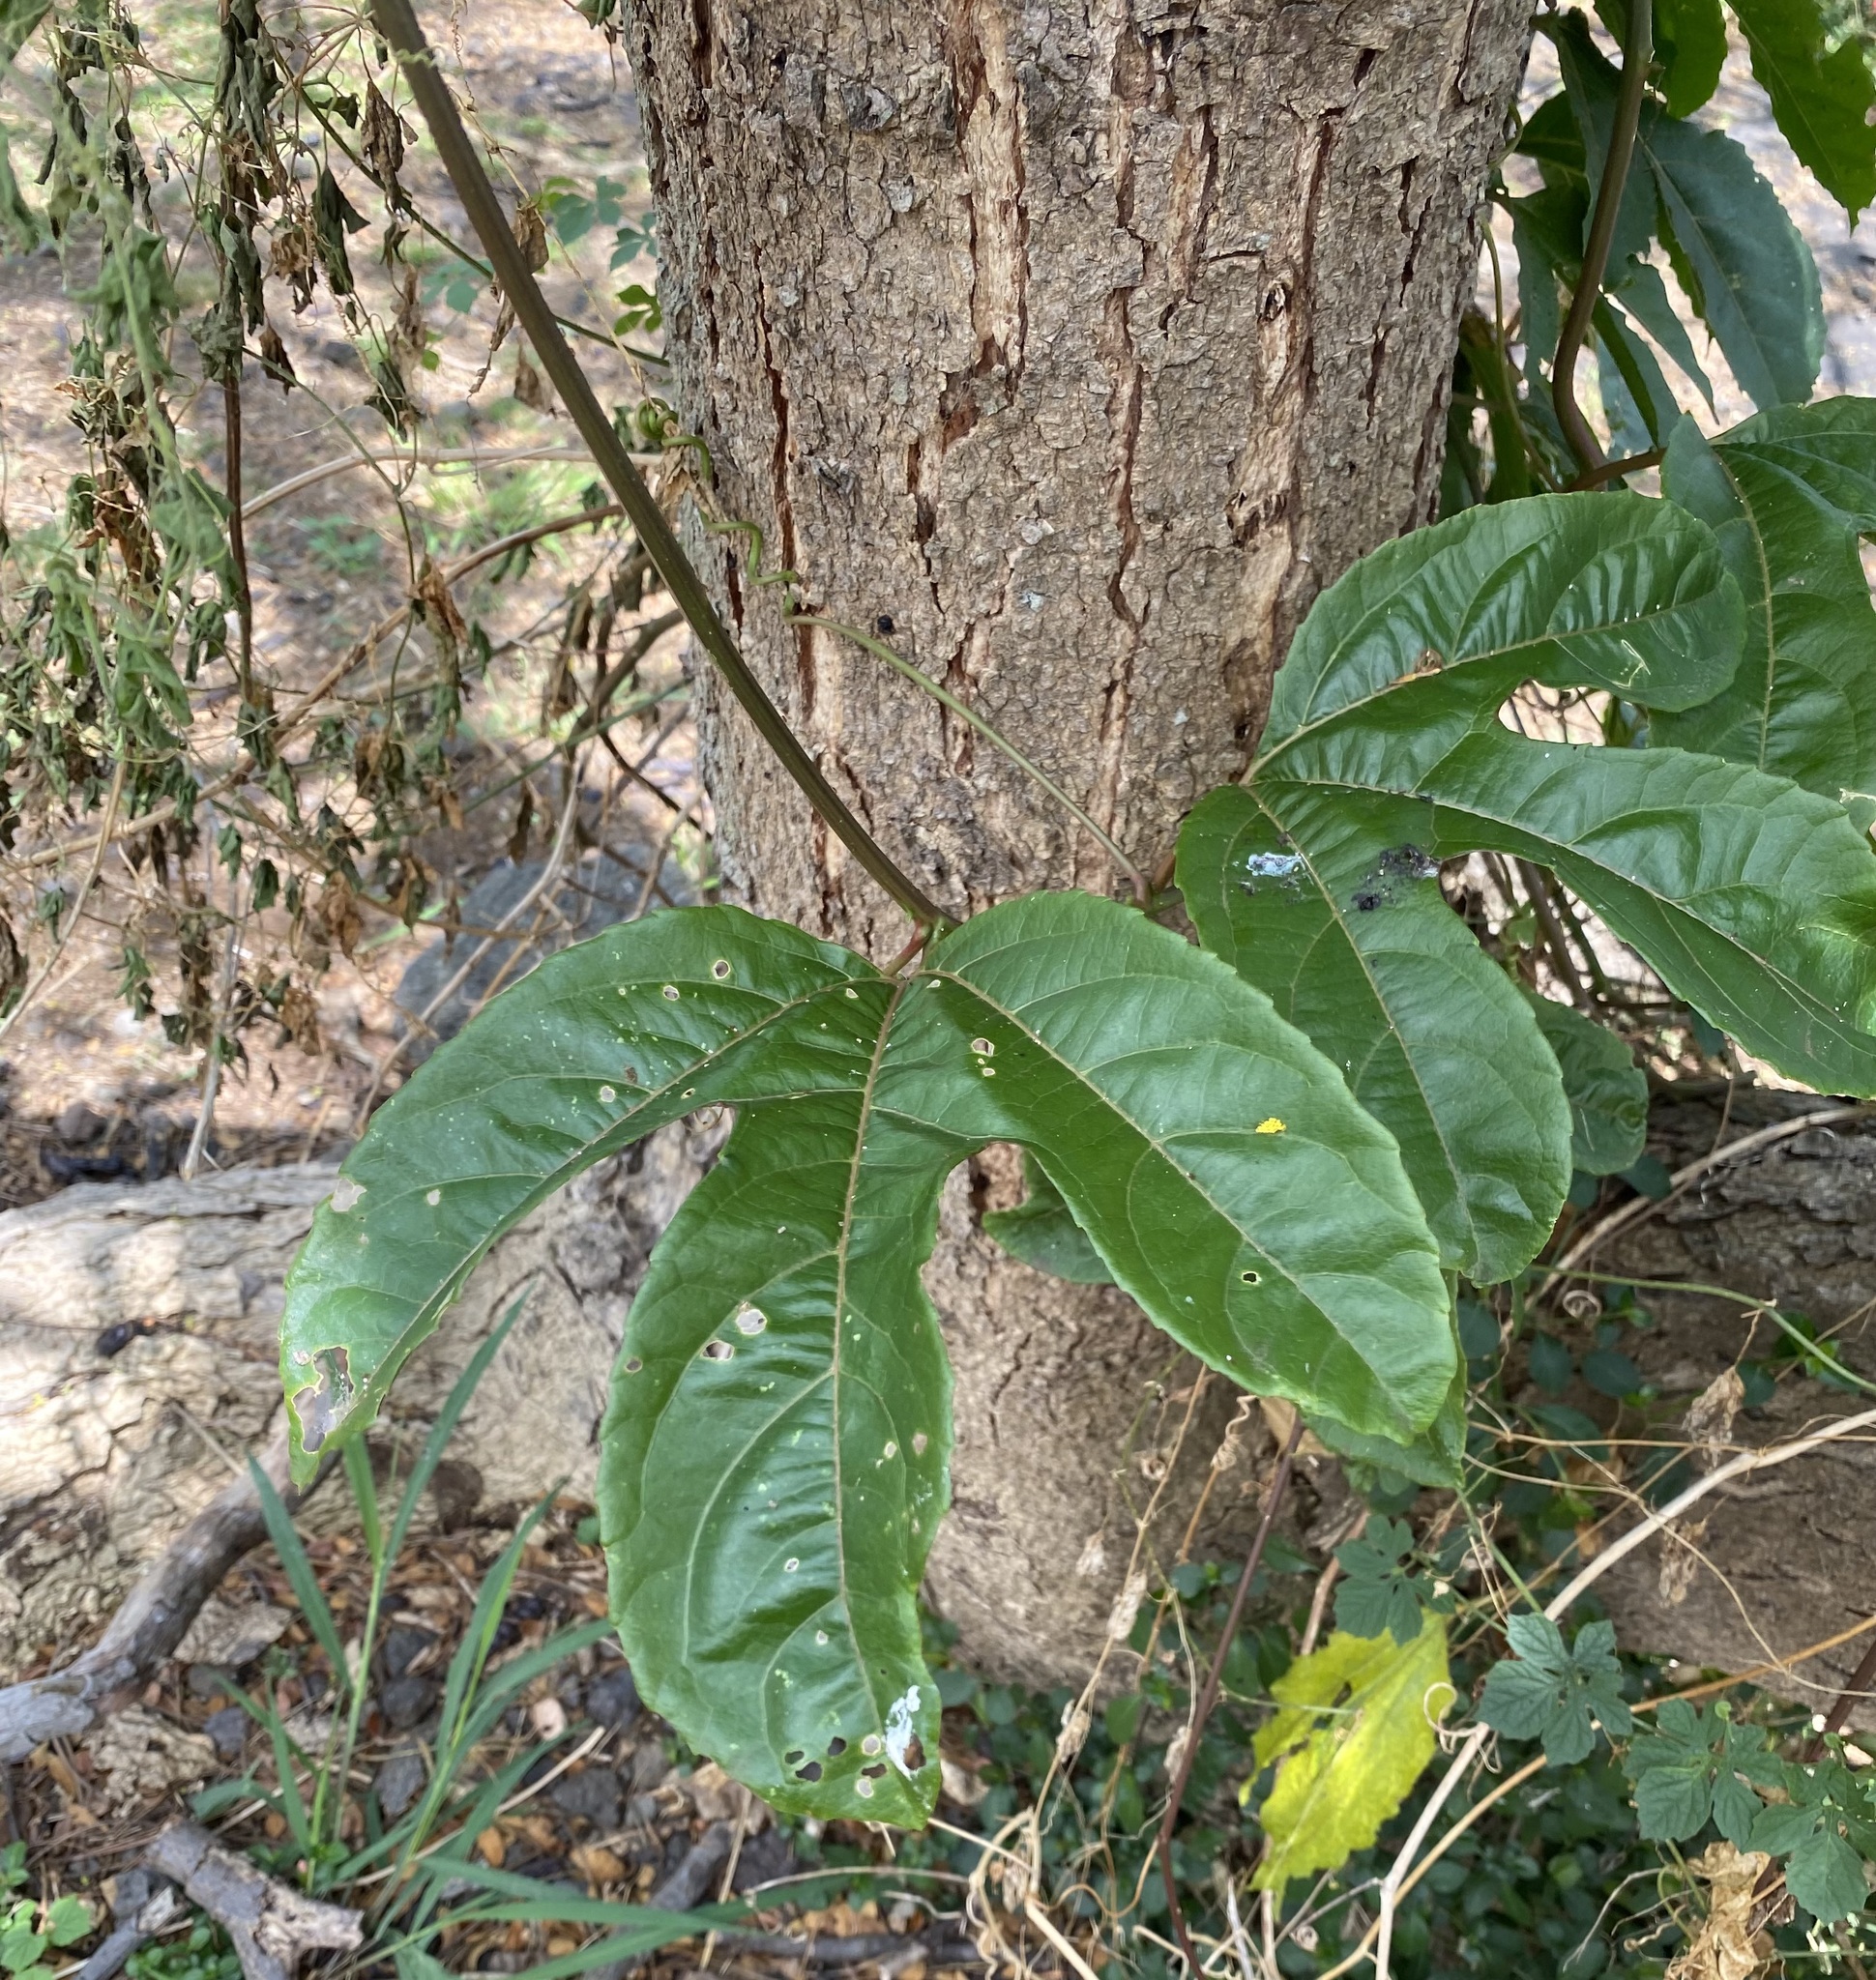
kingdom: Plantae
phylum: Tracheophyta
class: Magnoliopsida
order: Malpighiales
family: Passifloraceae
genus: Passiflora
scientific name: Passiflora edulis
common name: Purple granadilla
